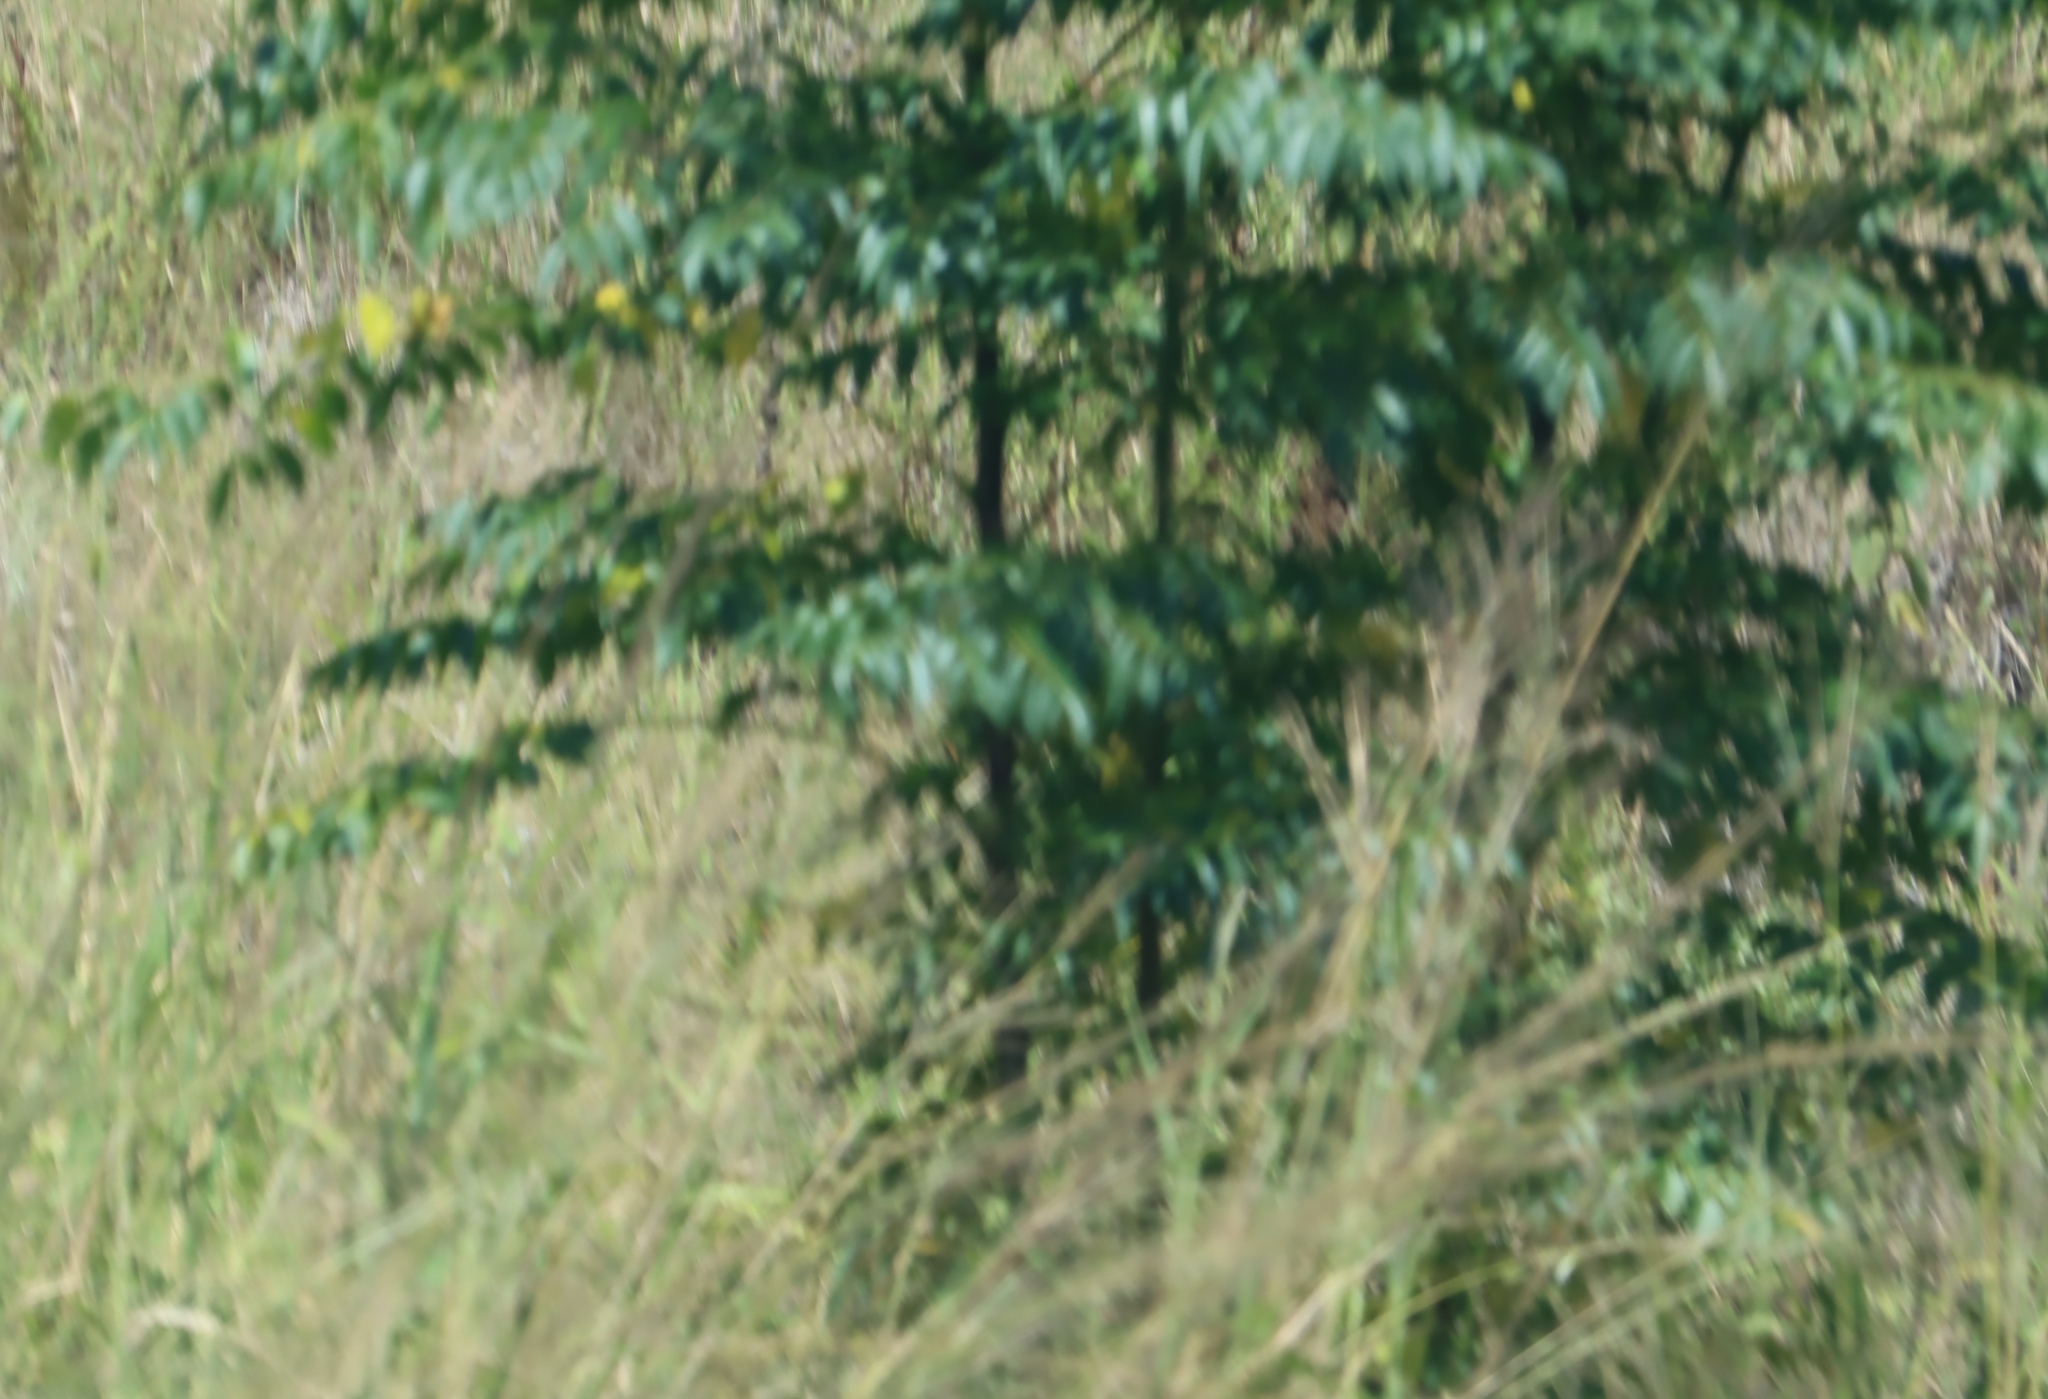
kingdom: Plantae
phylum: Tracheophyta
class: Magnoliopsida
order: Sapindales
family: Meliaceae
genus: Melia
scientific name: Melia azedarach
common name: Chinaberrytree
